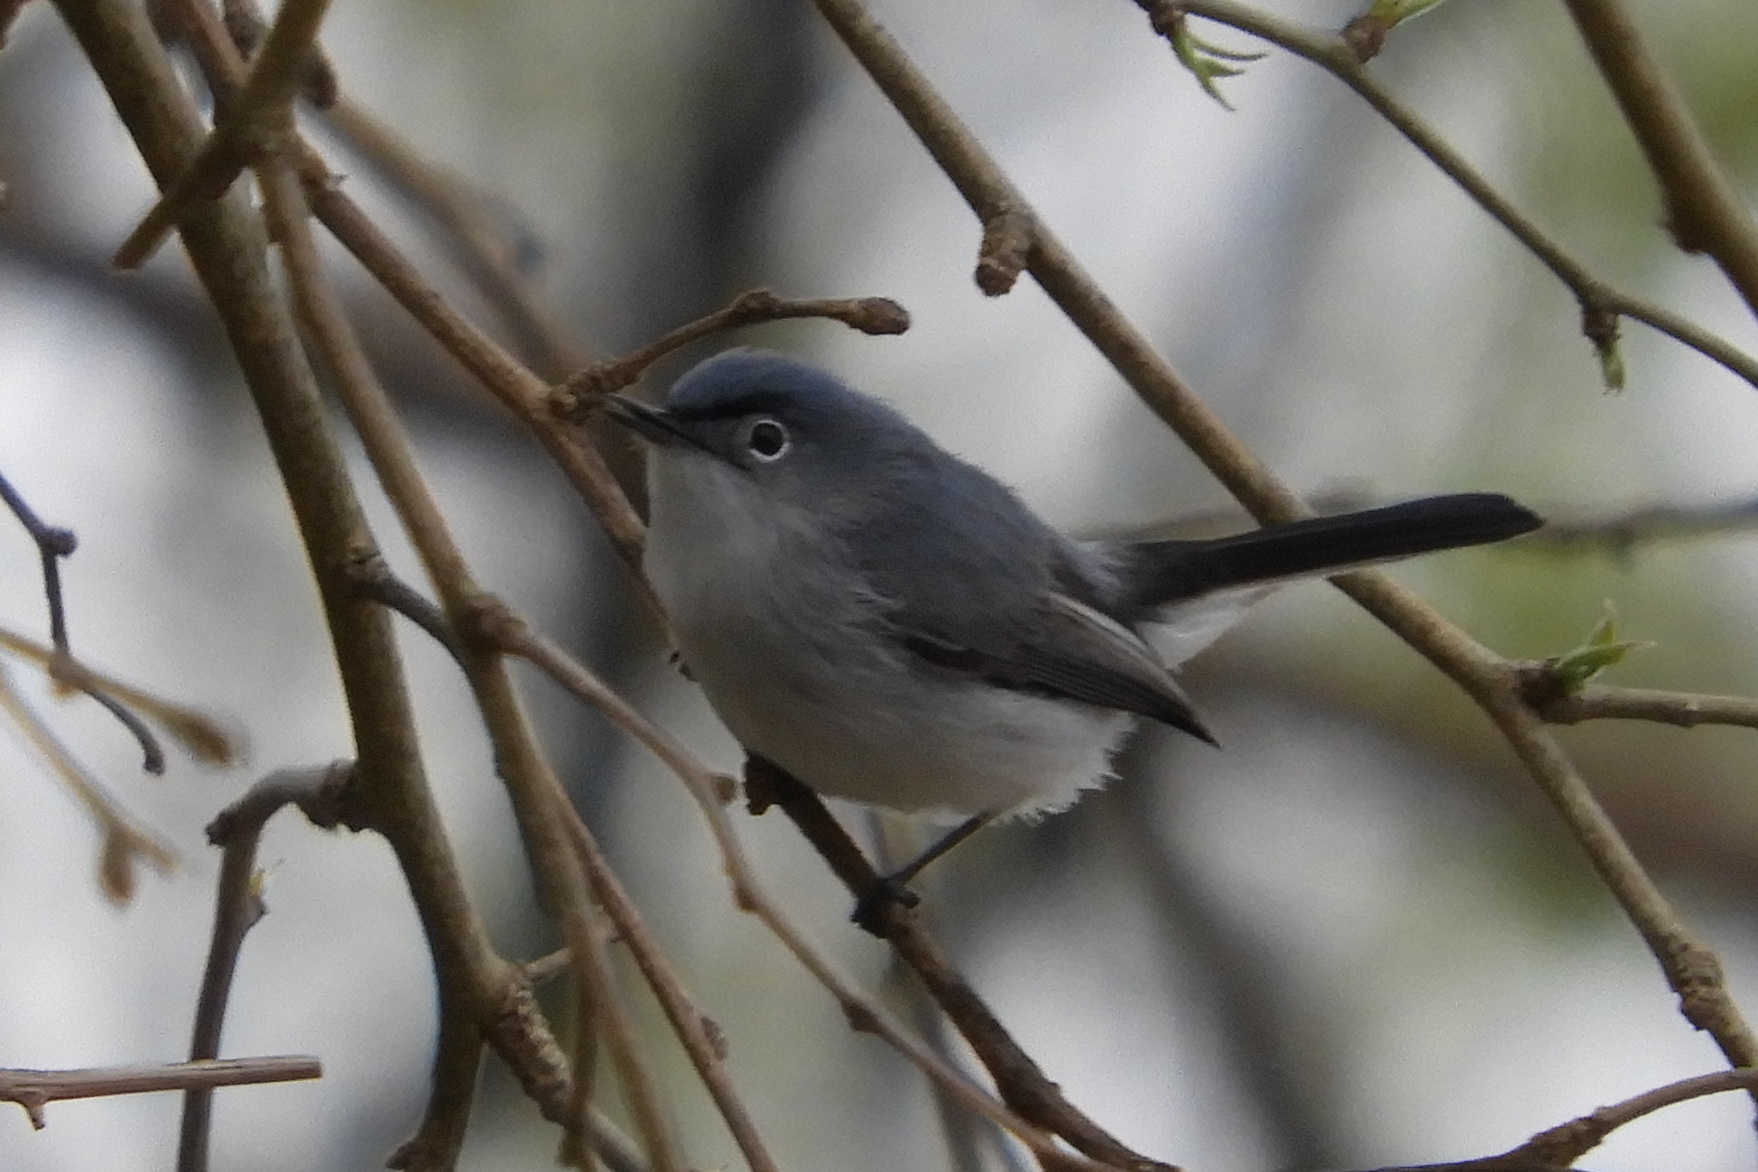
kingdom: Animalia
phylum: Chordata
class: Aves
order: Passeriformes
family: Polioptilidae
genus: Polioptila
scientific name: Polioptila caerulea
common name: Blue-gray gnatcatcher
